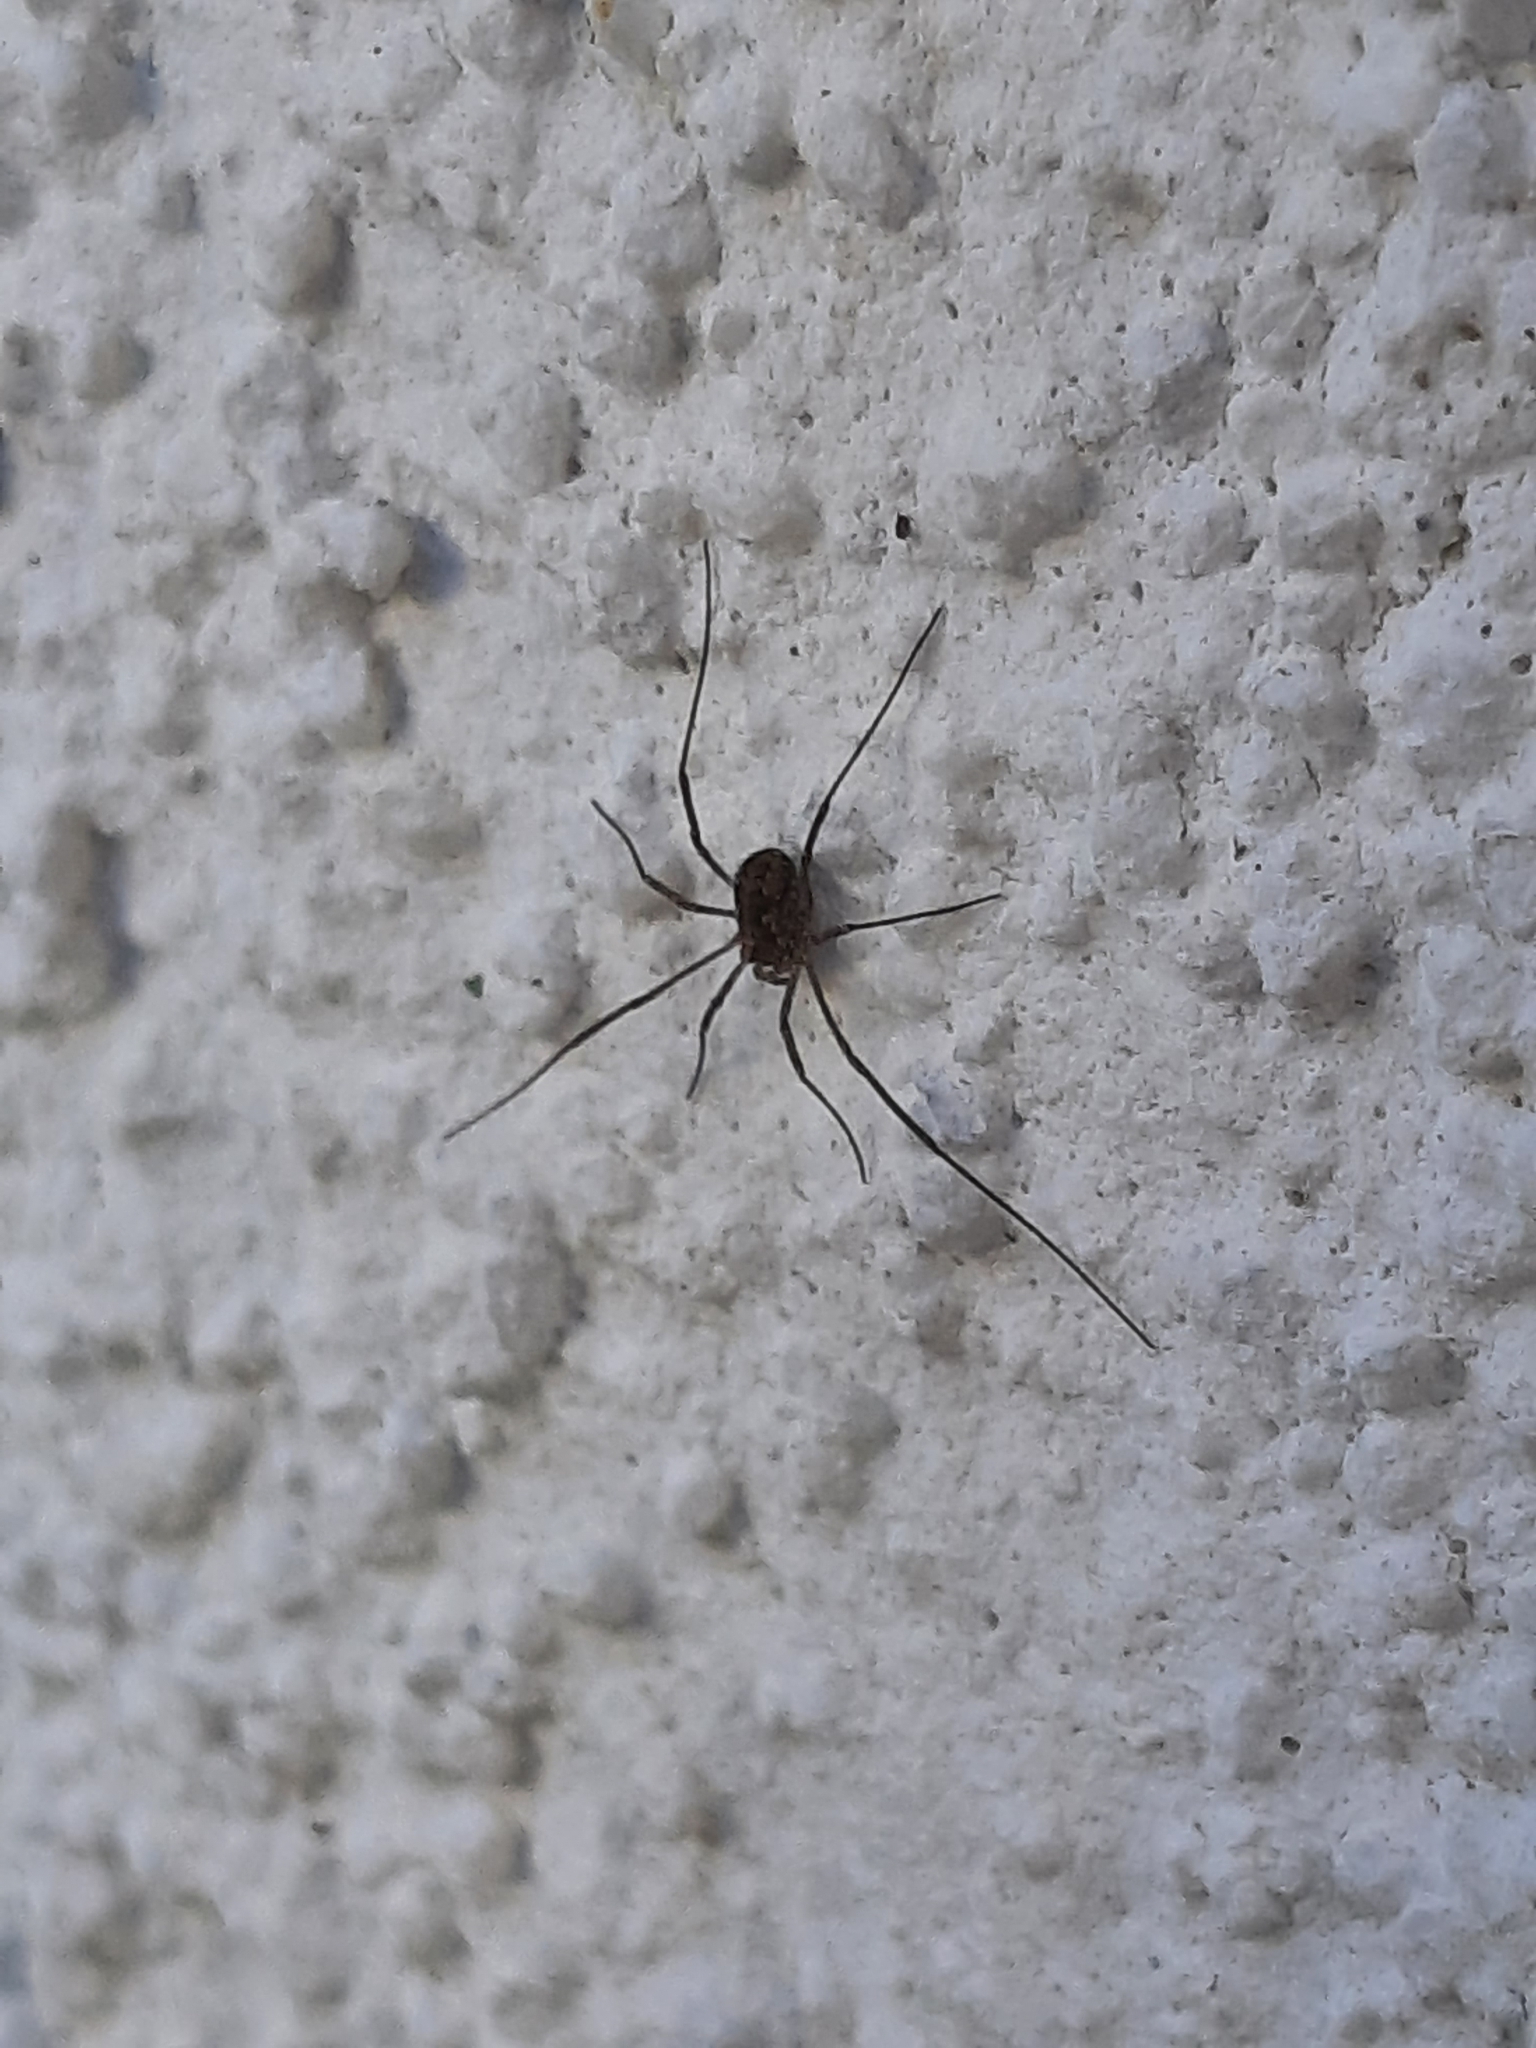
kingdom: Animalia
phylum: Arthropoda
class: Arachnida
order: Opiliones
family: Phalangiidae
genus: Phalangium
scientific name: Phalangium opilio
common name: Daddy longleg
